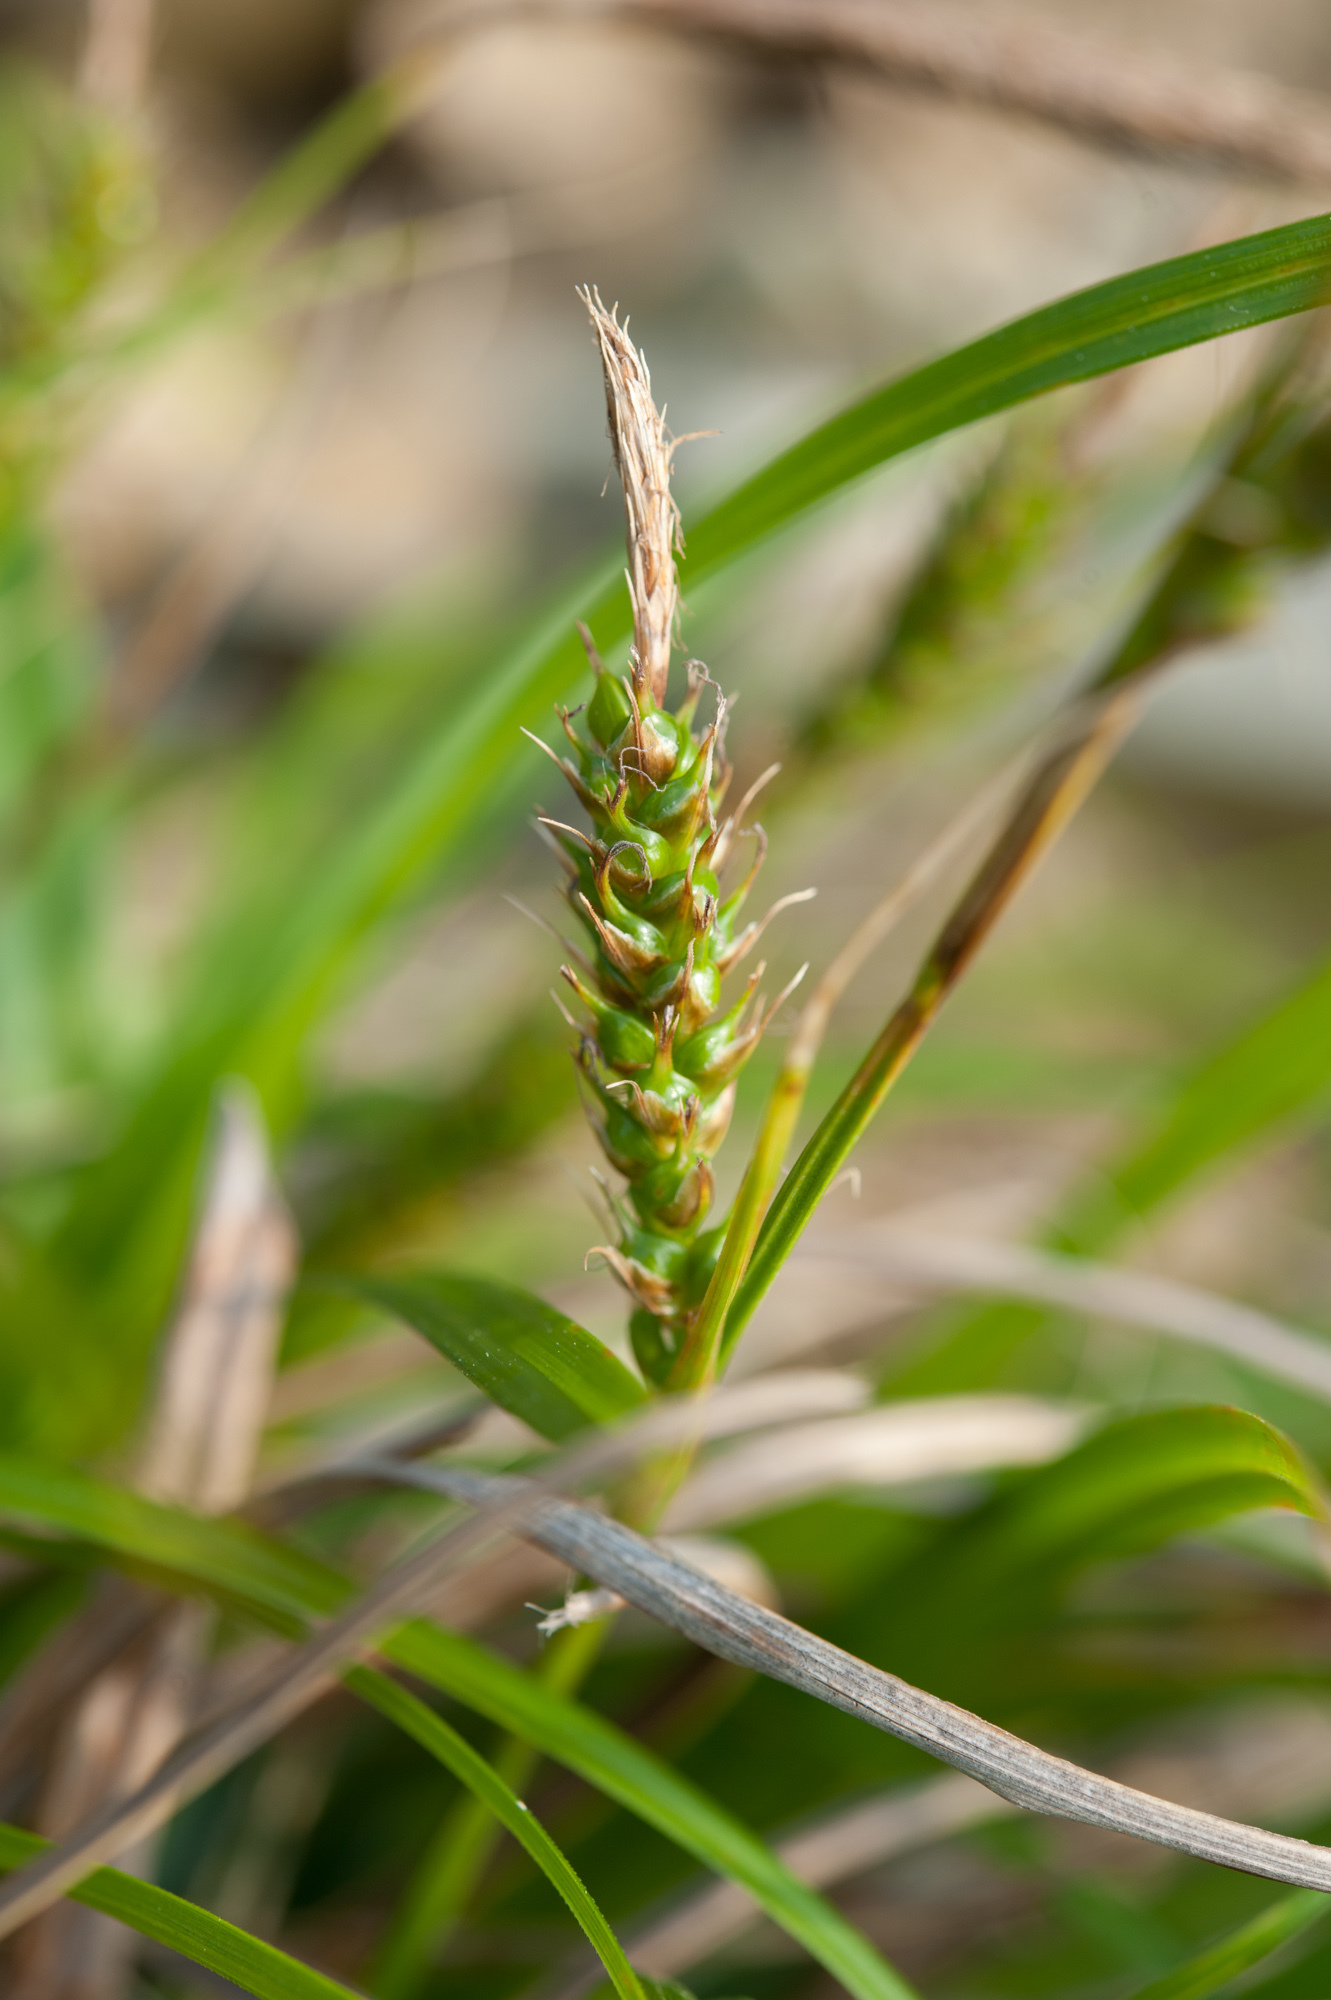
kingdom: Plantae
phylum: Tracheophyta
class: Liliopsida
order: Poales
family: Cyperaceae
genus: Carex
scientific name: Carex pumila
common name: Dwarf sedge
